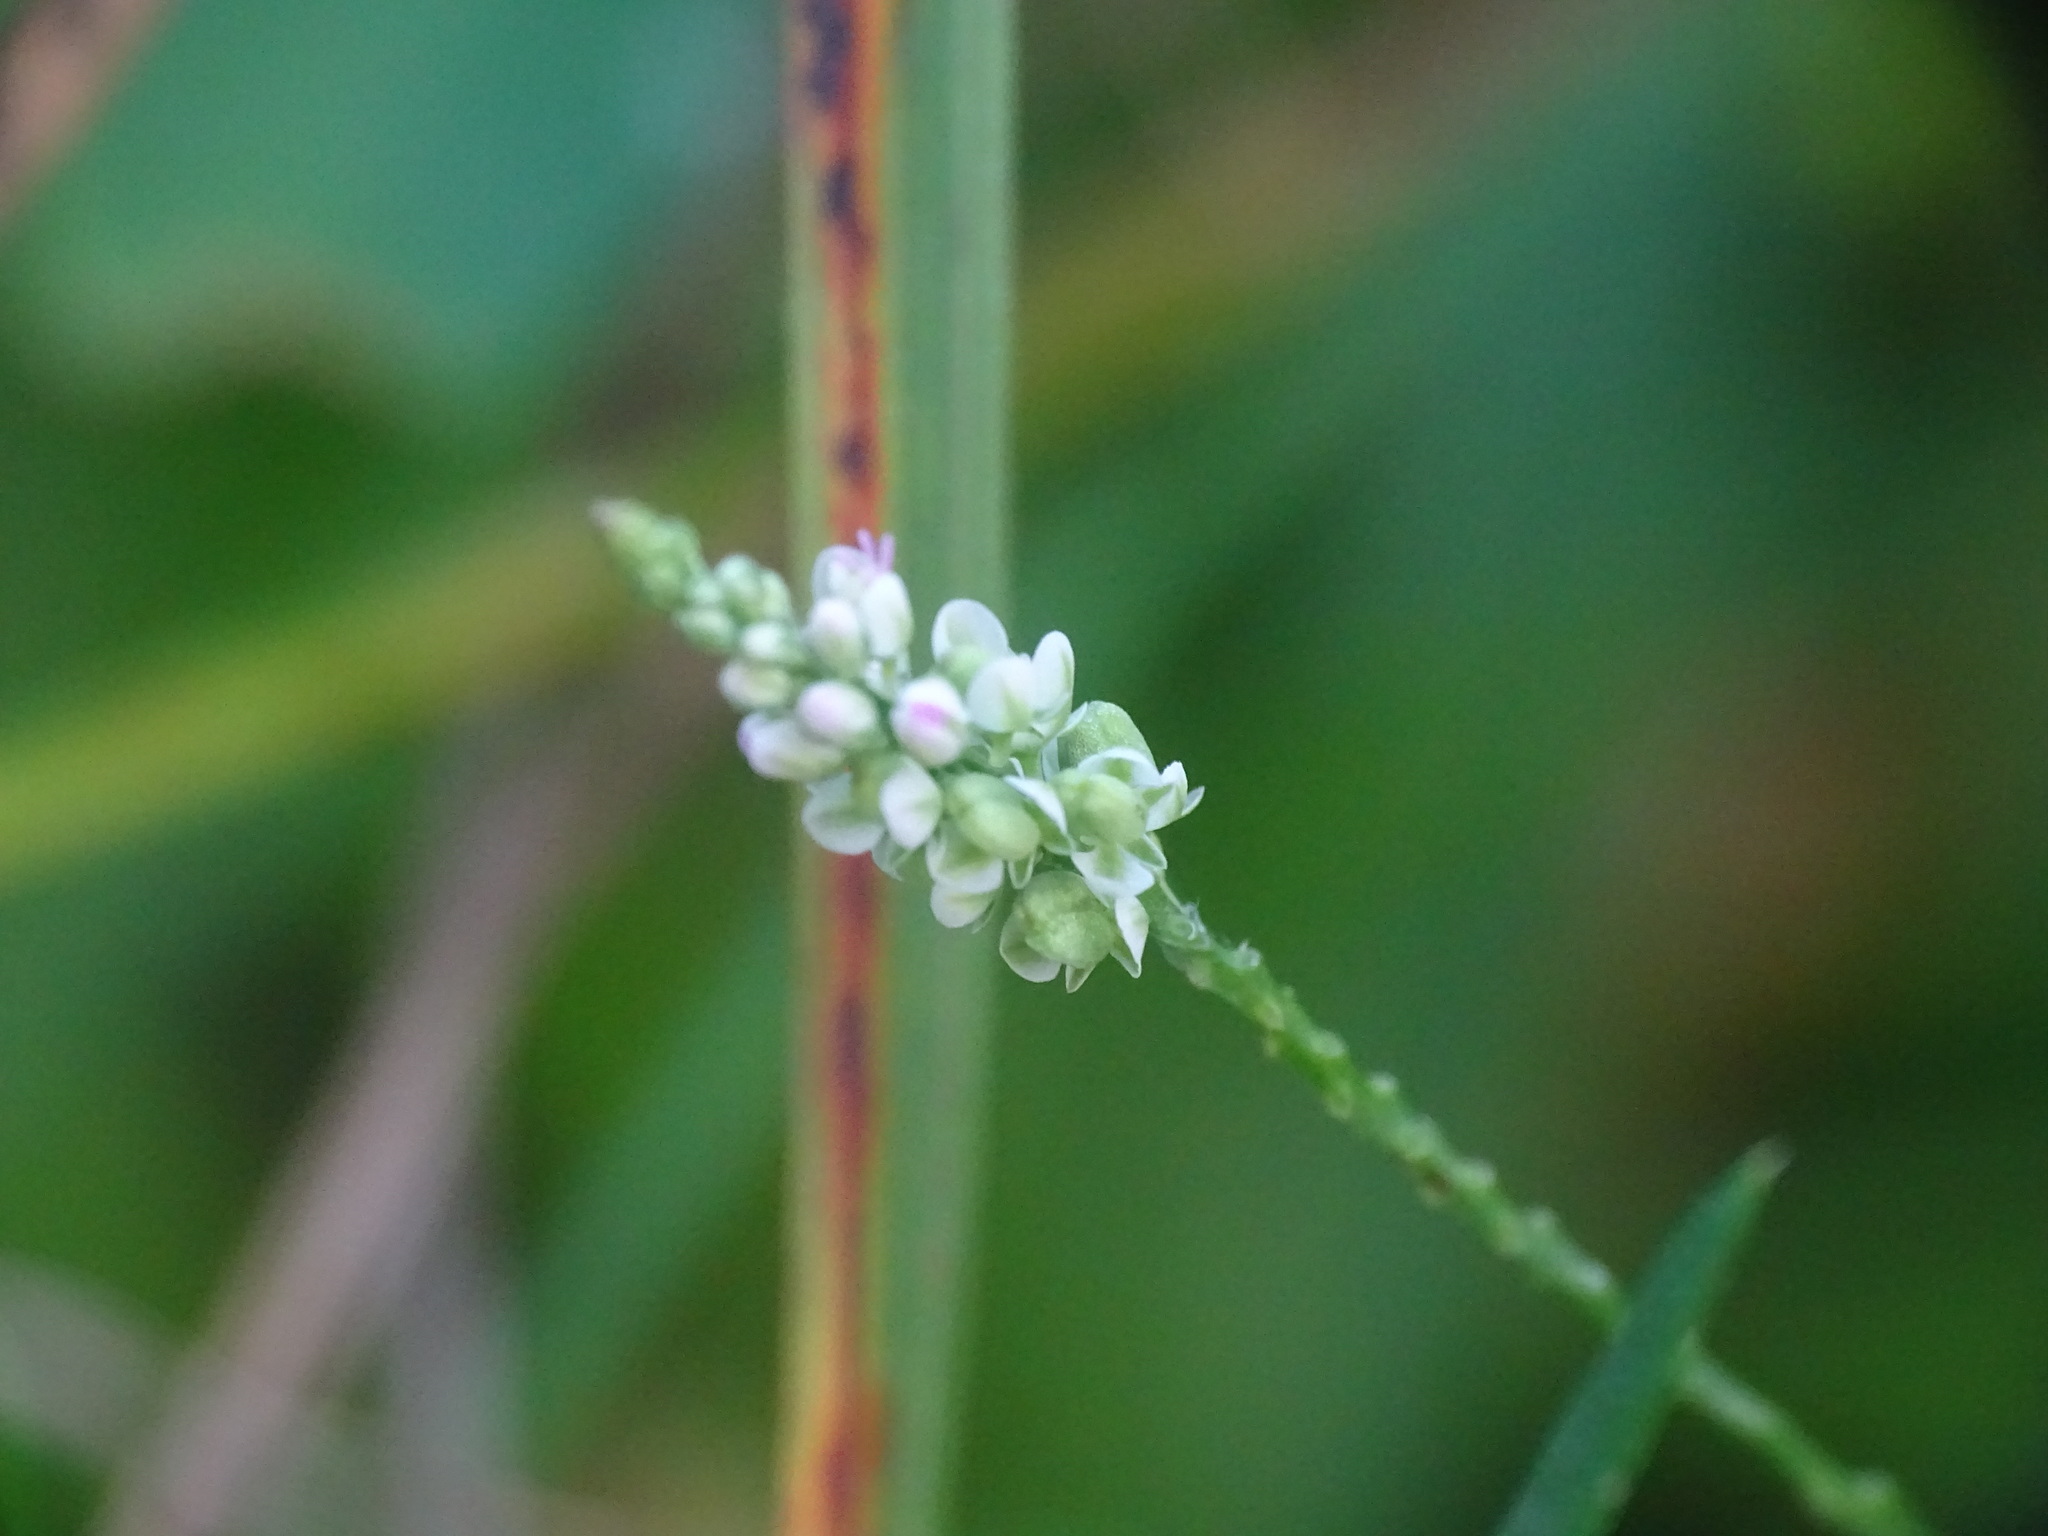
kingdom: Plantae
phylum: Tracheophyta
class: Magnoliopsida
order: Fabales
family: Polygalaceae
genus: Polygala
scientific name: Polygala verticillata
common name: Whorl milkwort
